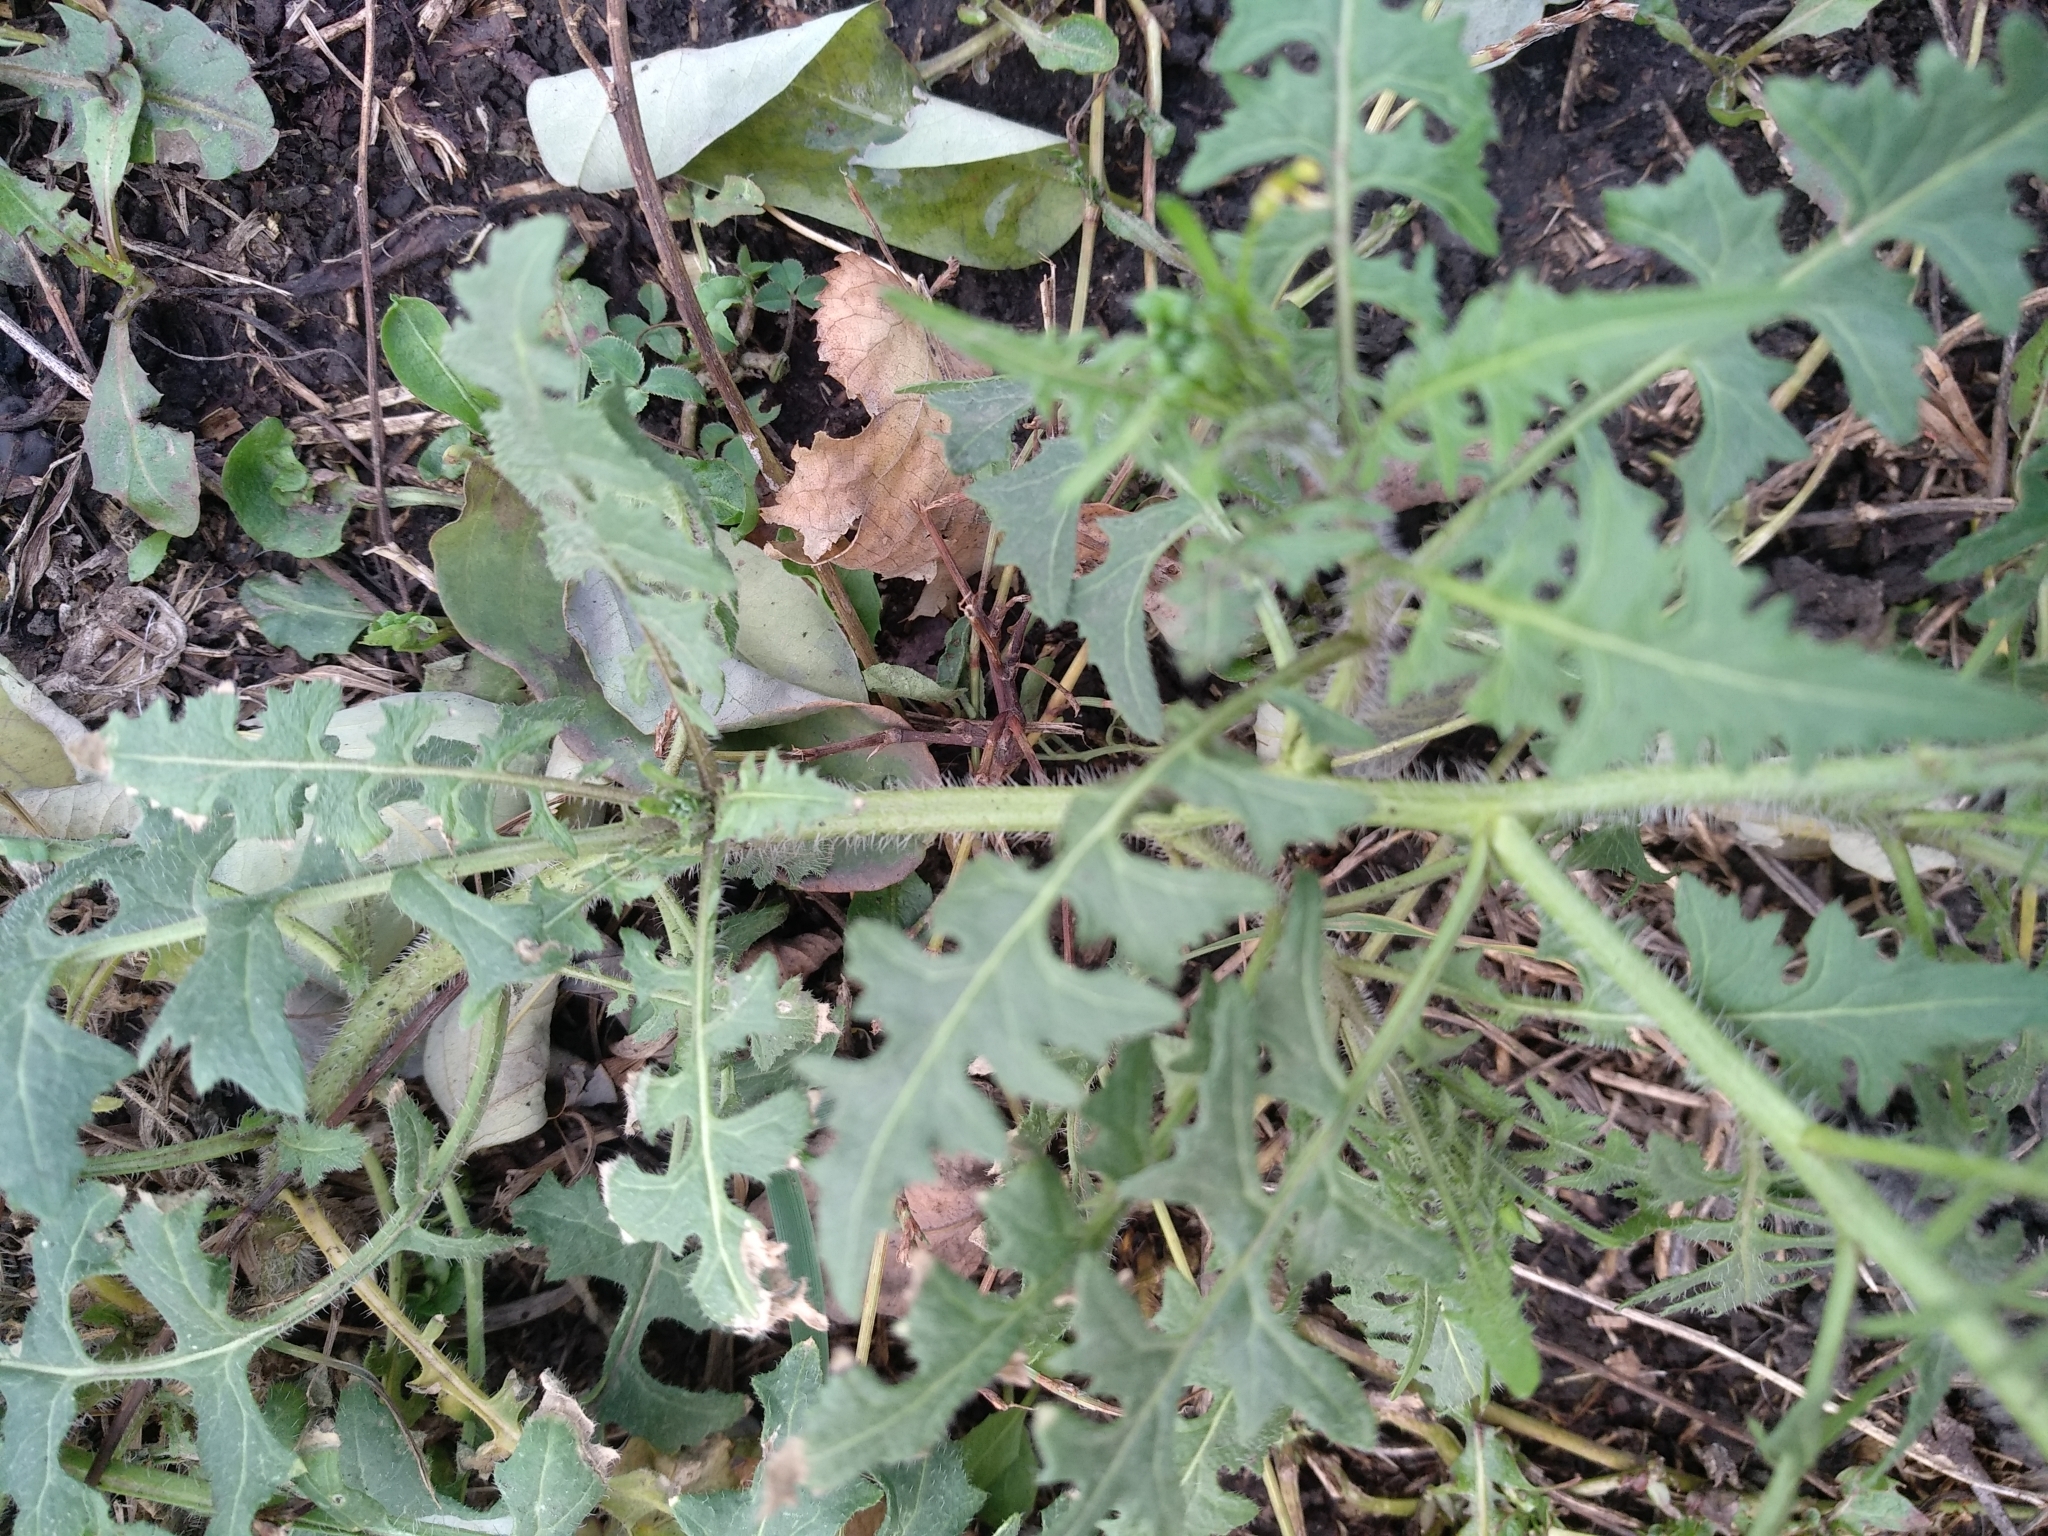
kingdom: Plantae
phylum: Tracheophyta
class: Magnoliopsida
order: Brassicales
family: Brassicaceae
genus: Sisymbrium
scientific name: Sisymbrium loeselii
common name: False london-rocket
